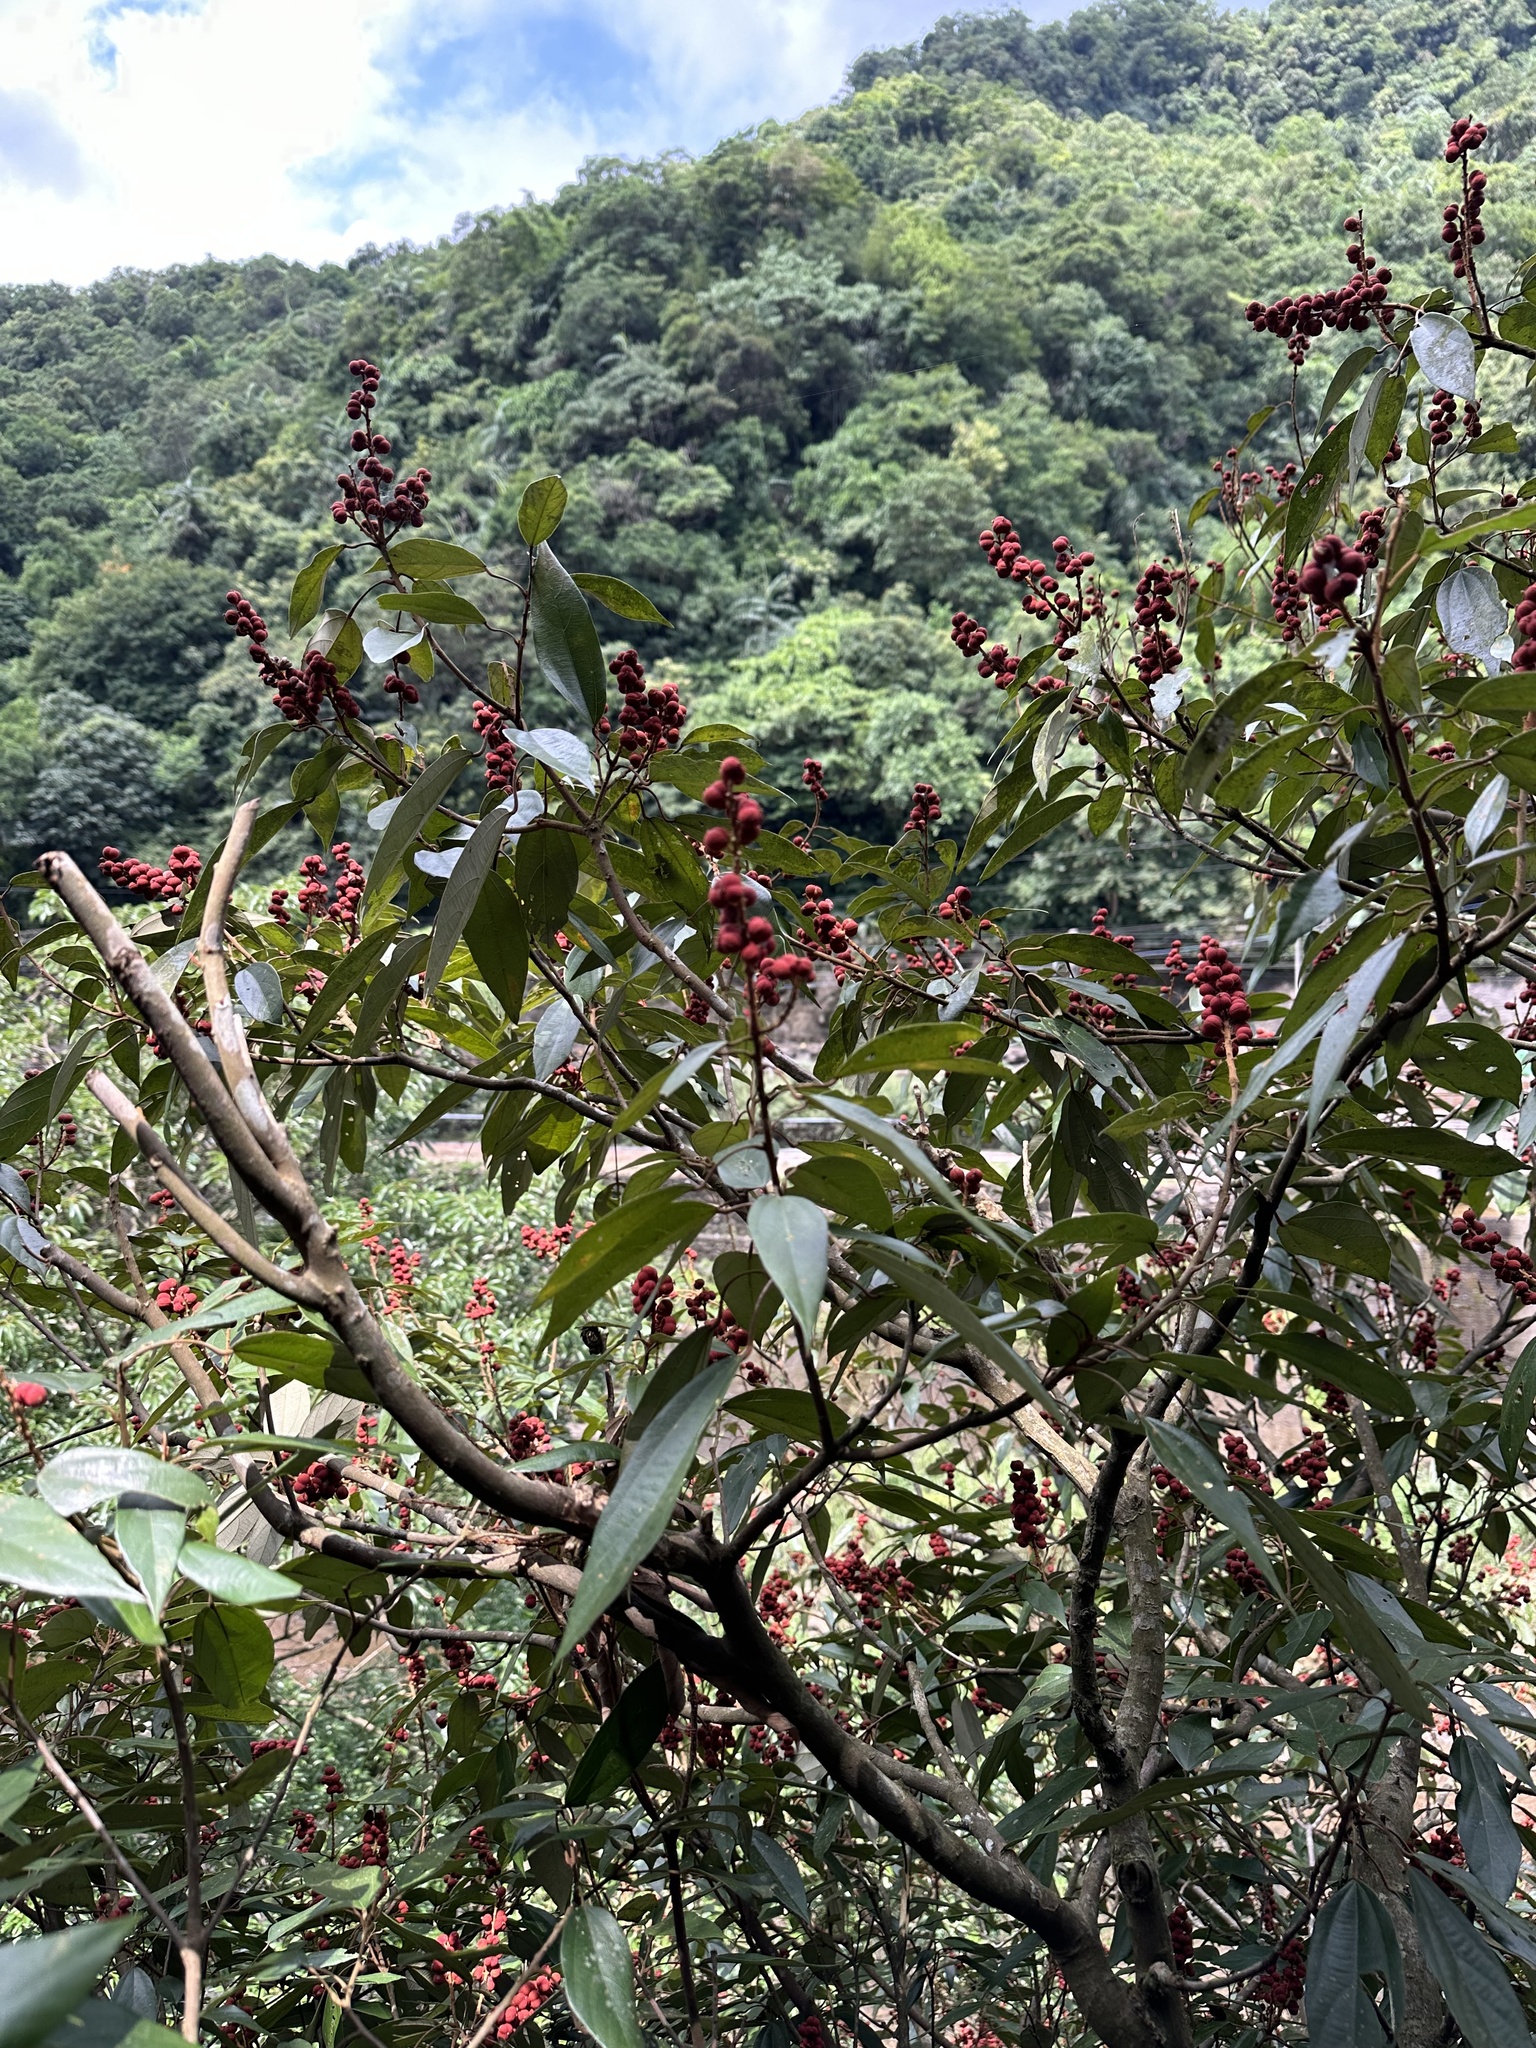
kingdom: Plantae
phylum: Tracheophyta
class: Magnoliopsida
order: Malpighiales
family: Euphorbiaceae
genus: Mallotus
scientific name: Mallotus philippensis
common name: Kamala tree
